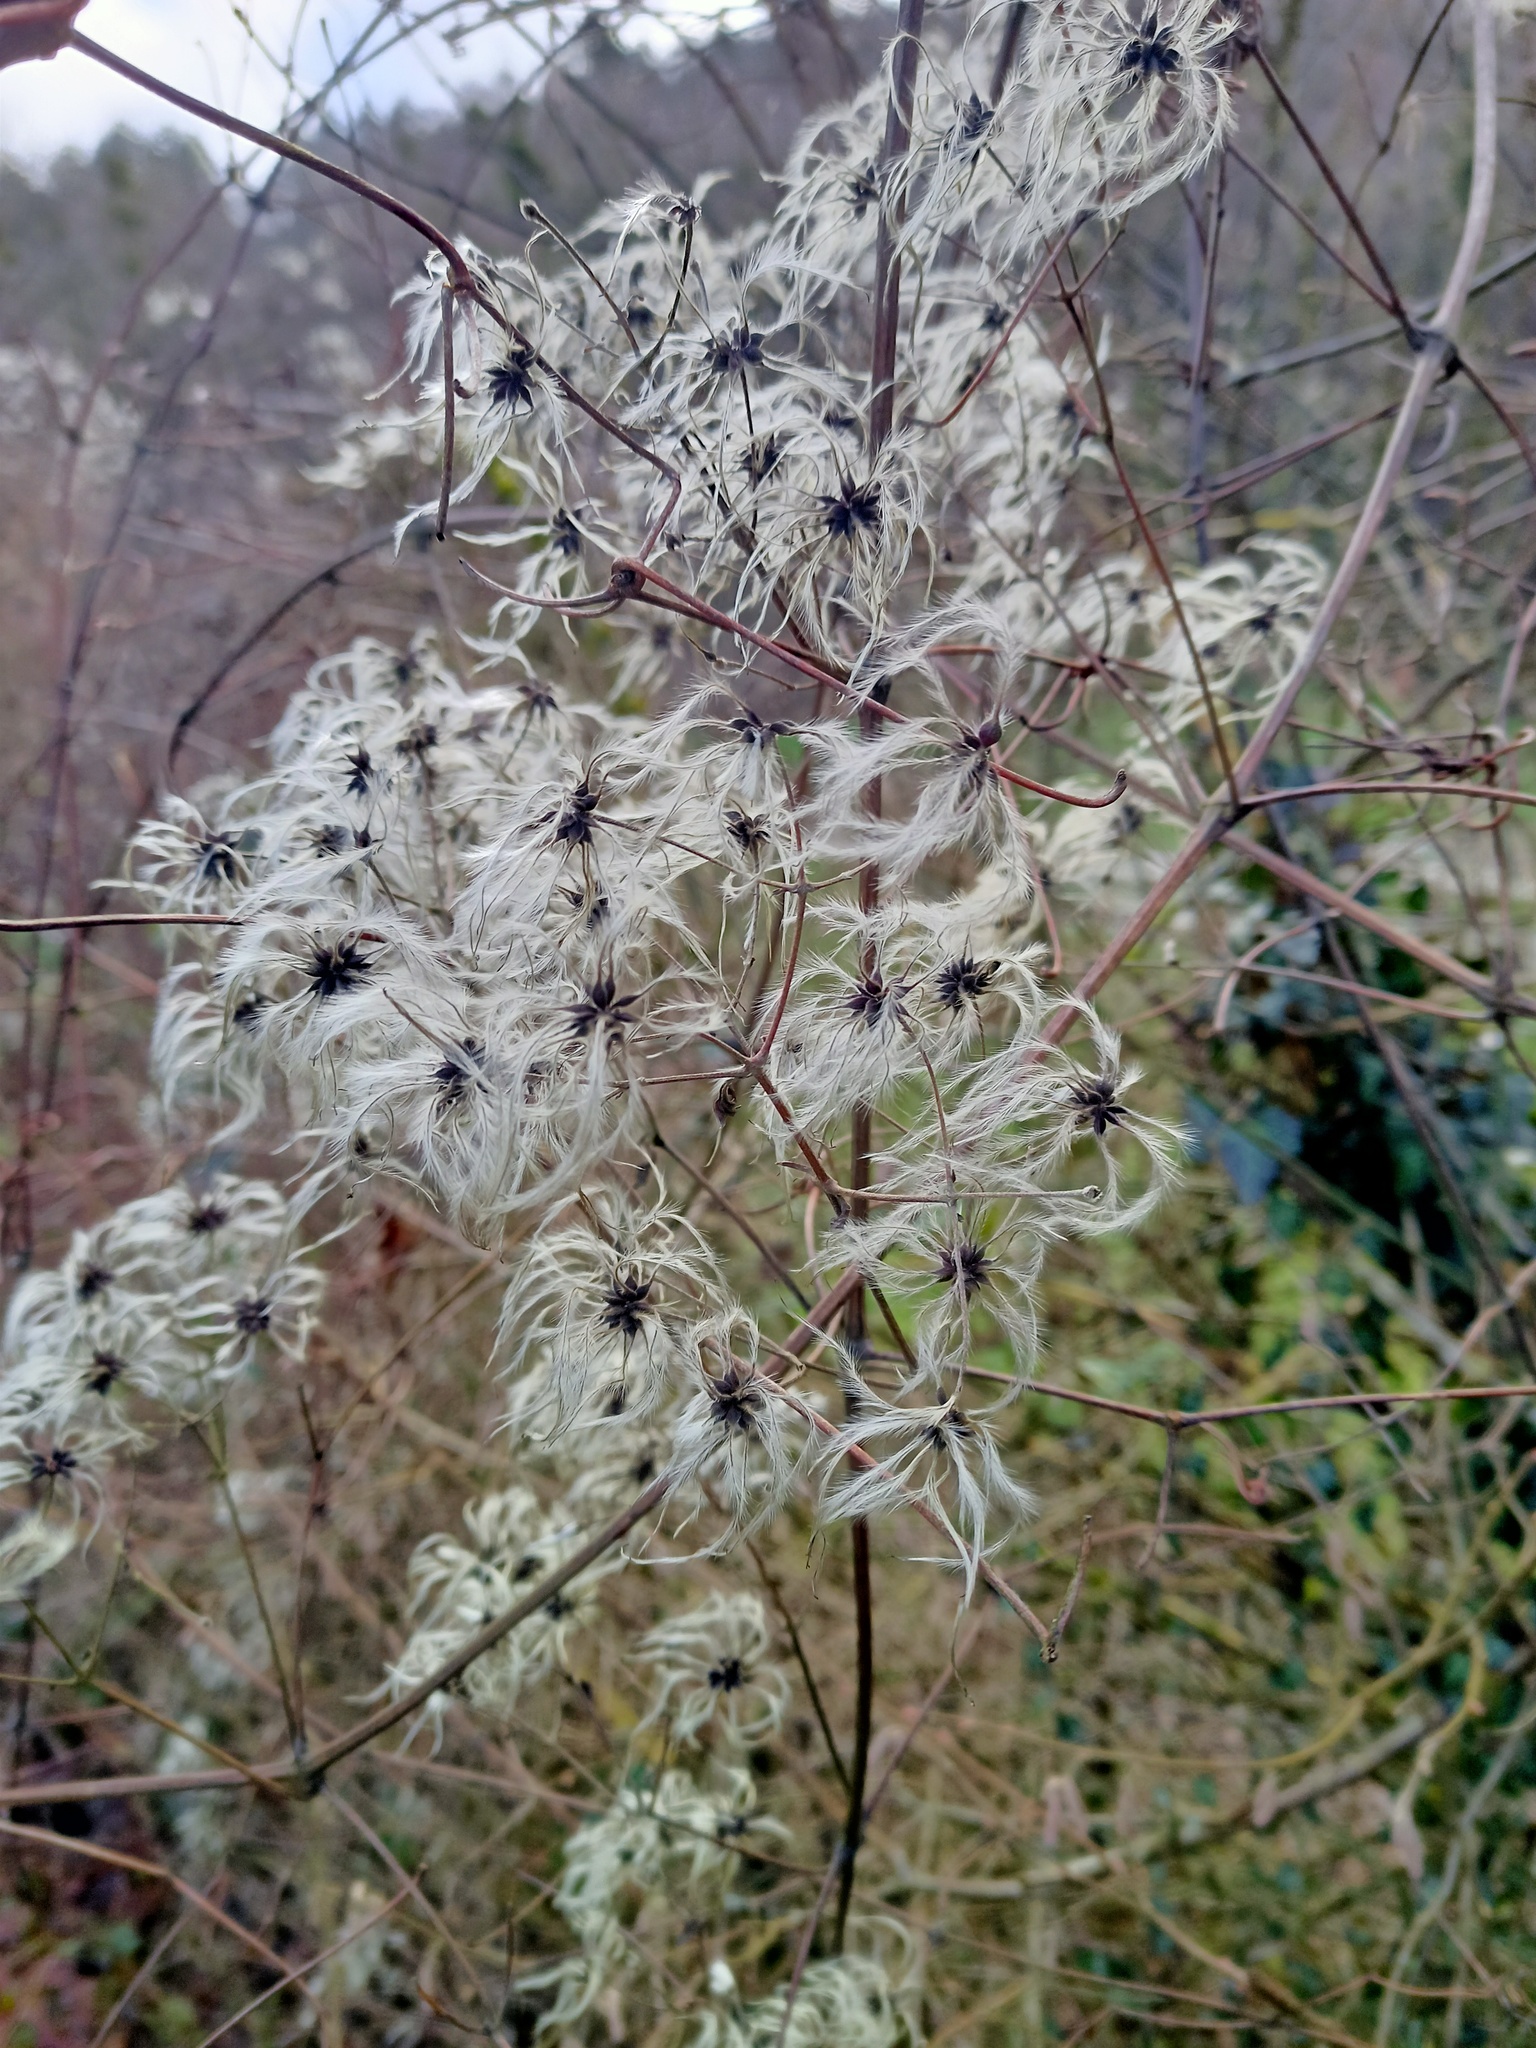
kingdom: Plantae
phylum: Tracheophyta
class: Magnoliopsida
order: Ranunculales
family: Ranunculaceae
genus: Clematis
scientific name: Clematis vitalba
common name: Evergreen clematis
